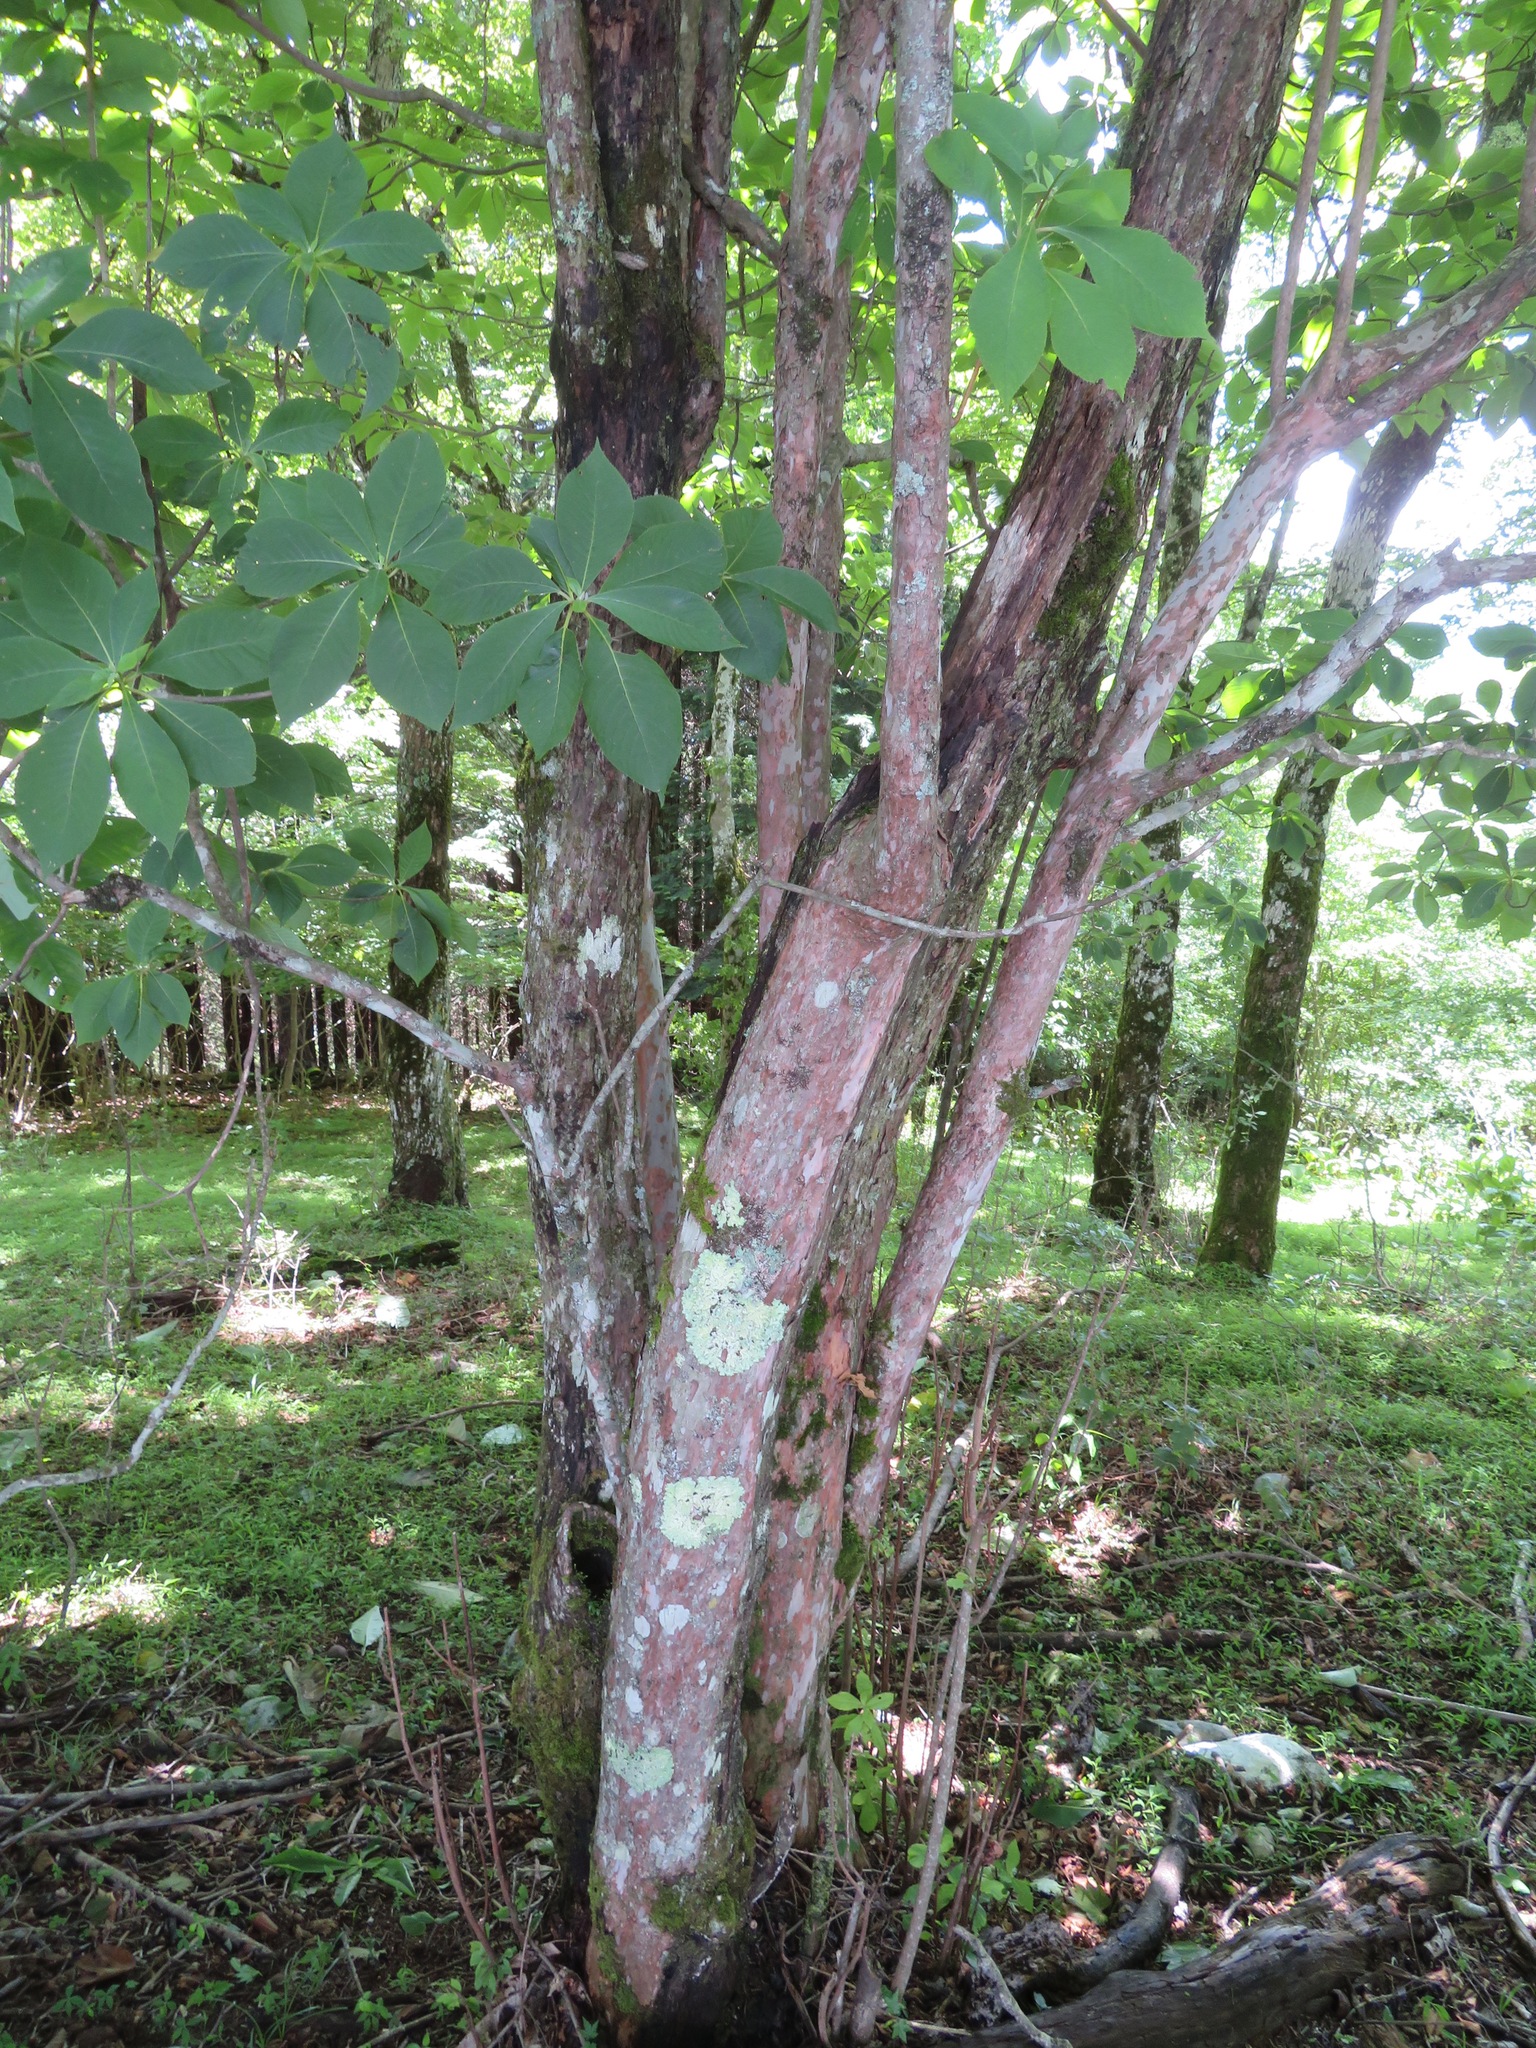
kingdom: Plantae
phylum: Tracheophyta
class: Magnoliopsida
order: Ericales
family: Clethraceae
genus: Clethra
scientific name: Clethra barbinervis
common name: Japanese clethra
